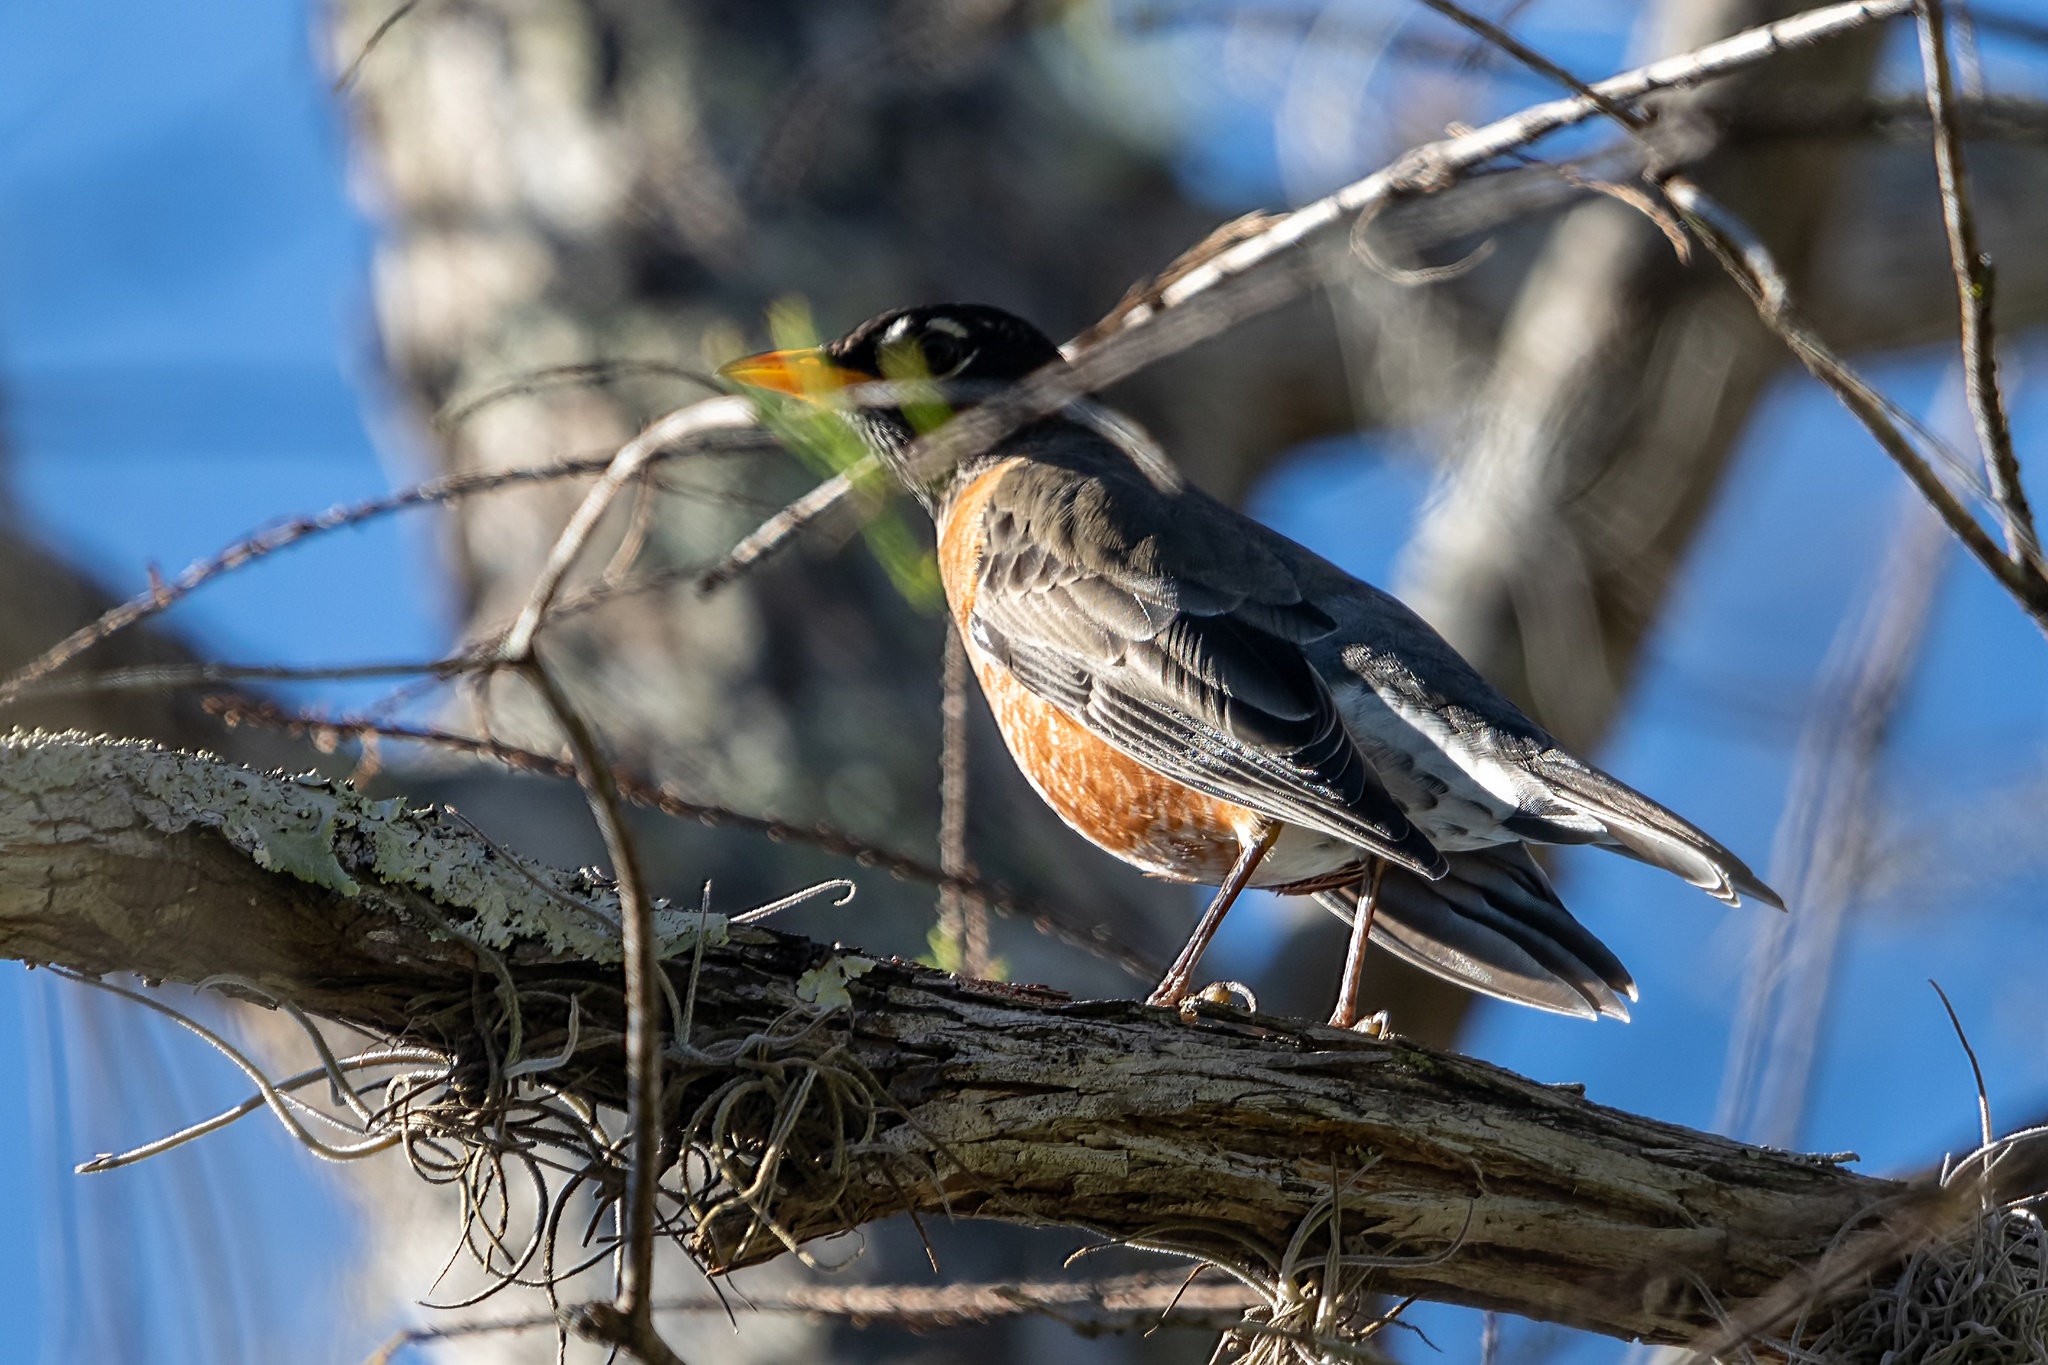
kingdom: Animalia
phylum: Chordata
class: Aves
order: Passeriformes
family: Turdidae
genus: Turdus
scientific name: Turdus migratorius
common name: American robin
